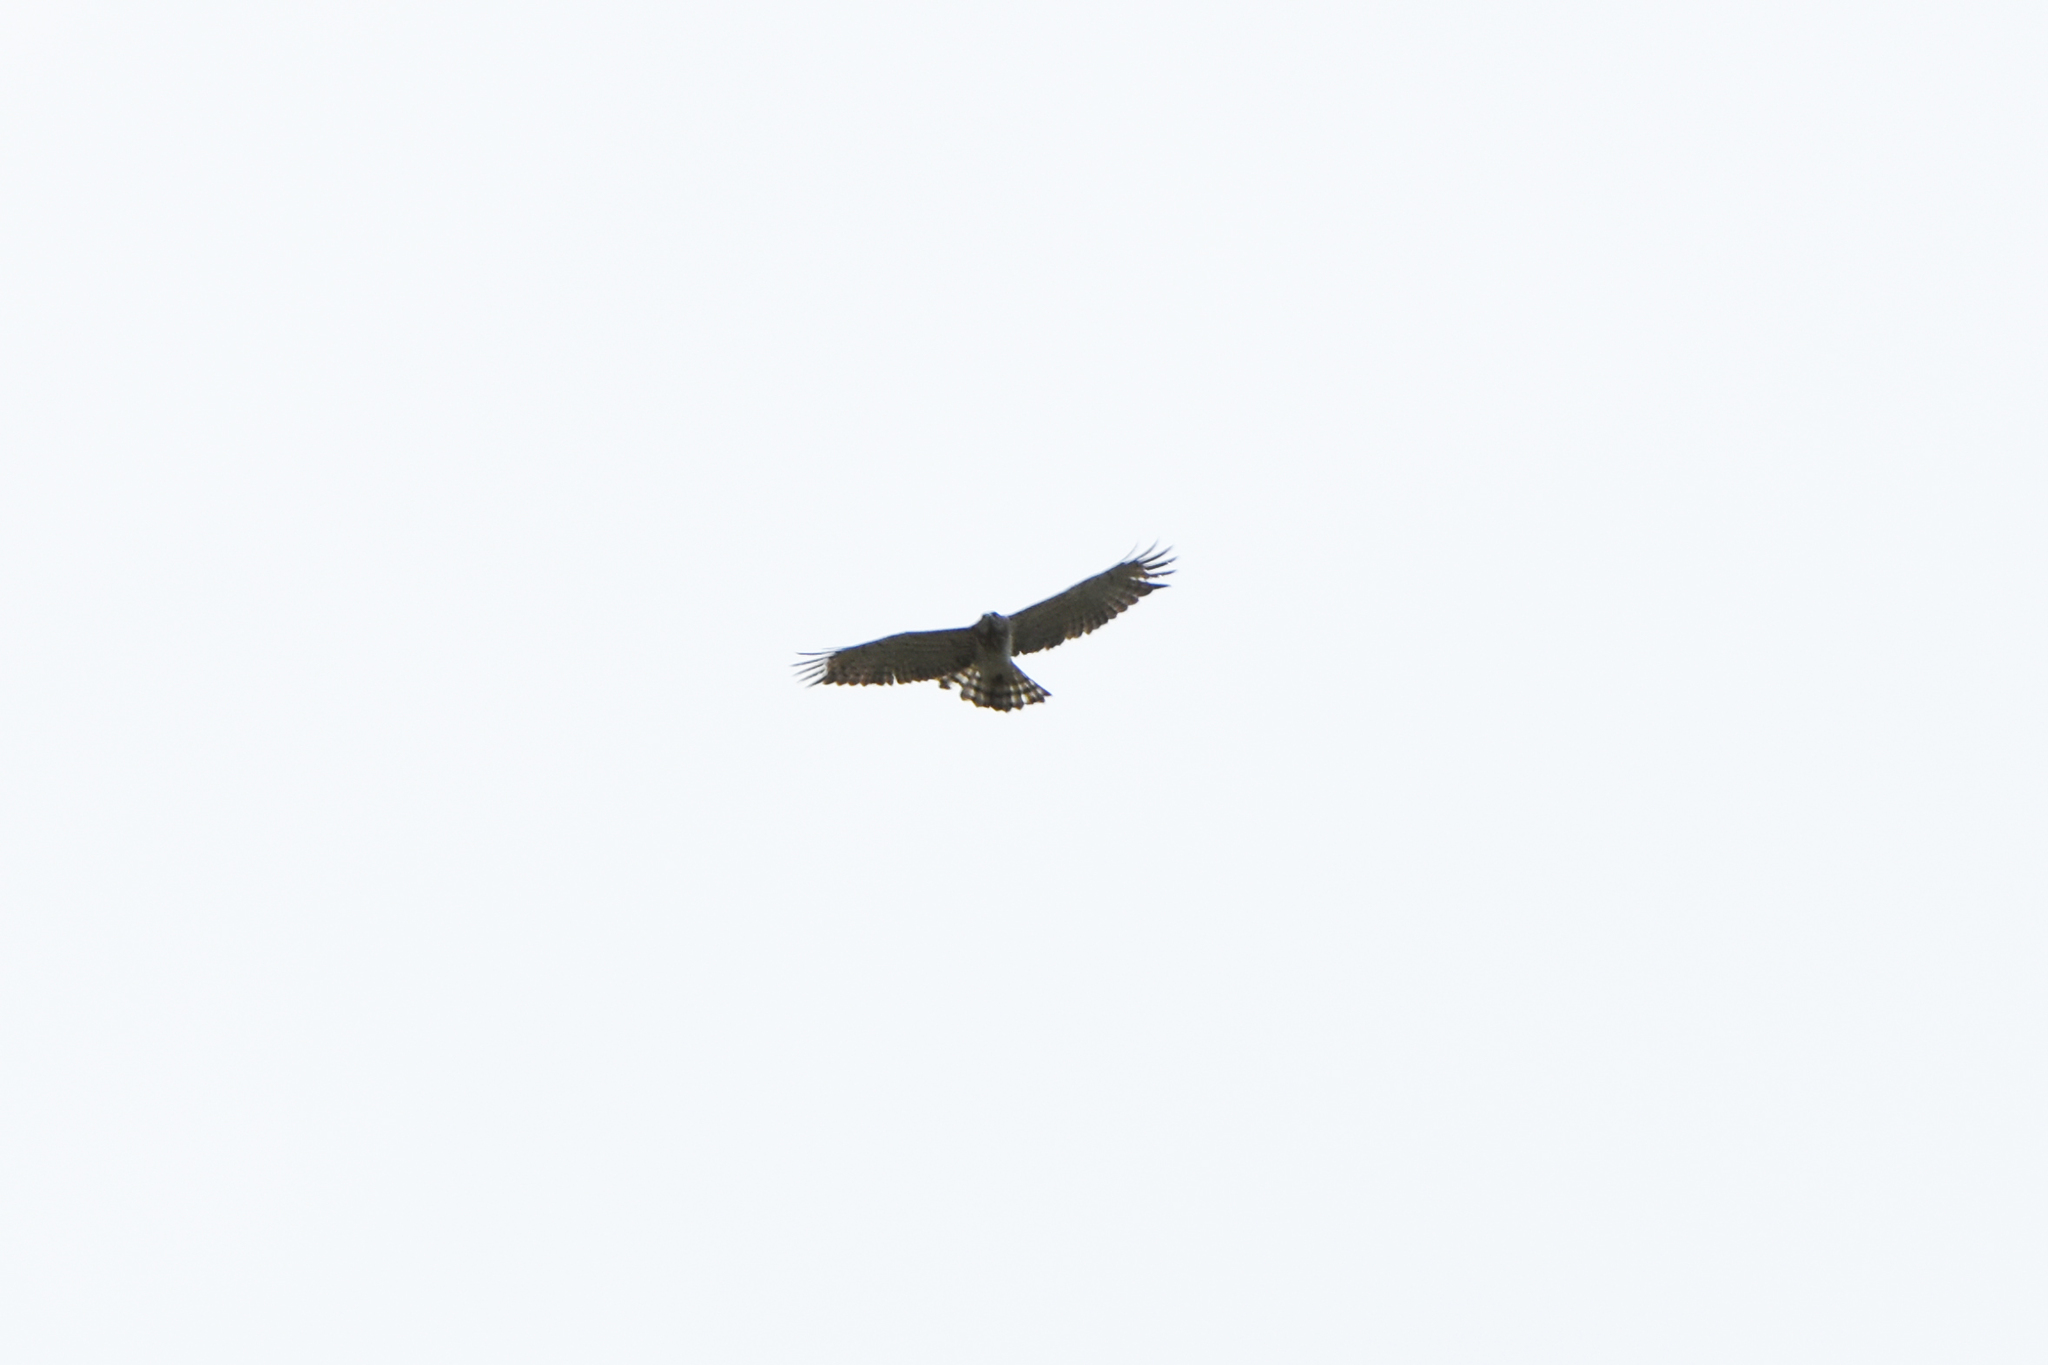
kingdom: Animalia
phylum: Chordata
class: Aves
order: Accipitriformes
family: Accipitridae
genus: Circaetus
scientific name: Circaetus gallicus
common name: Short-toed snake eagle
